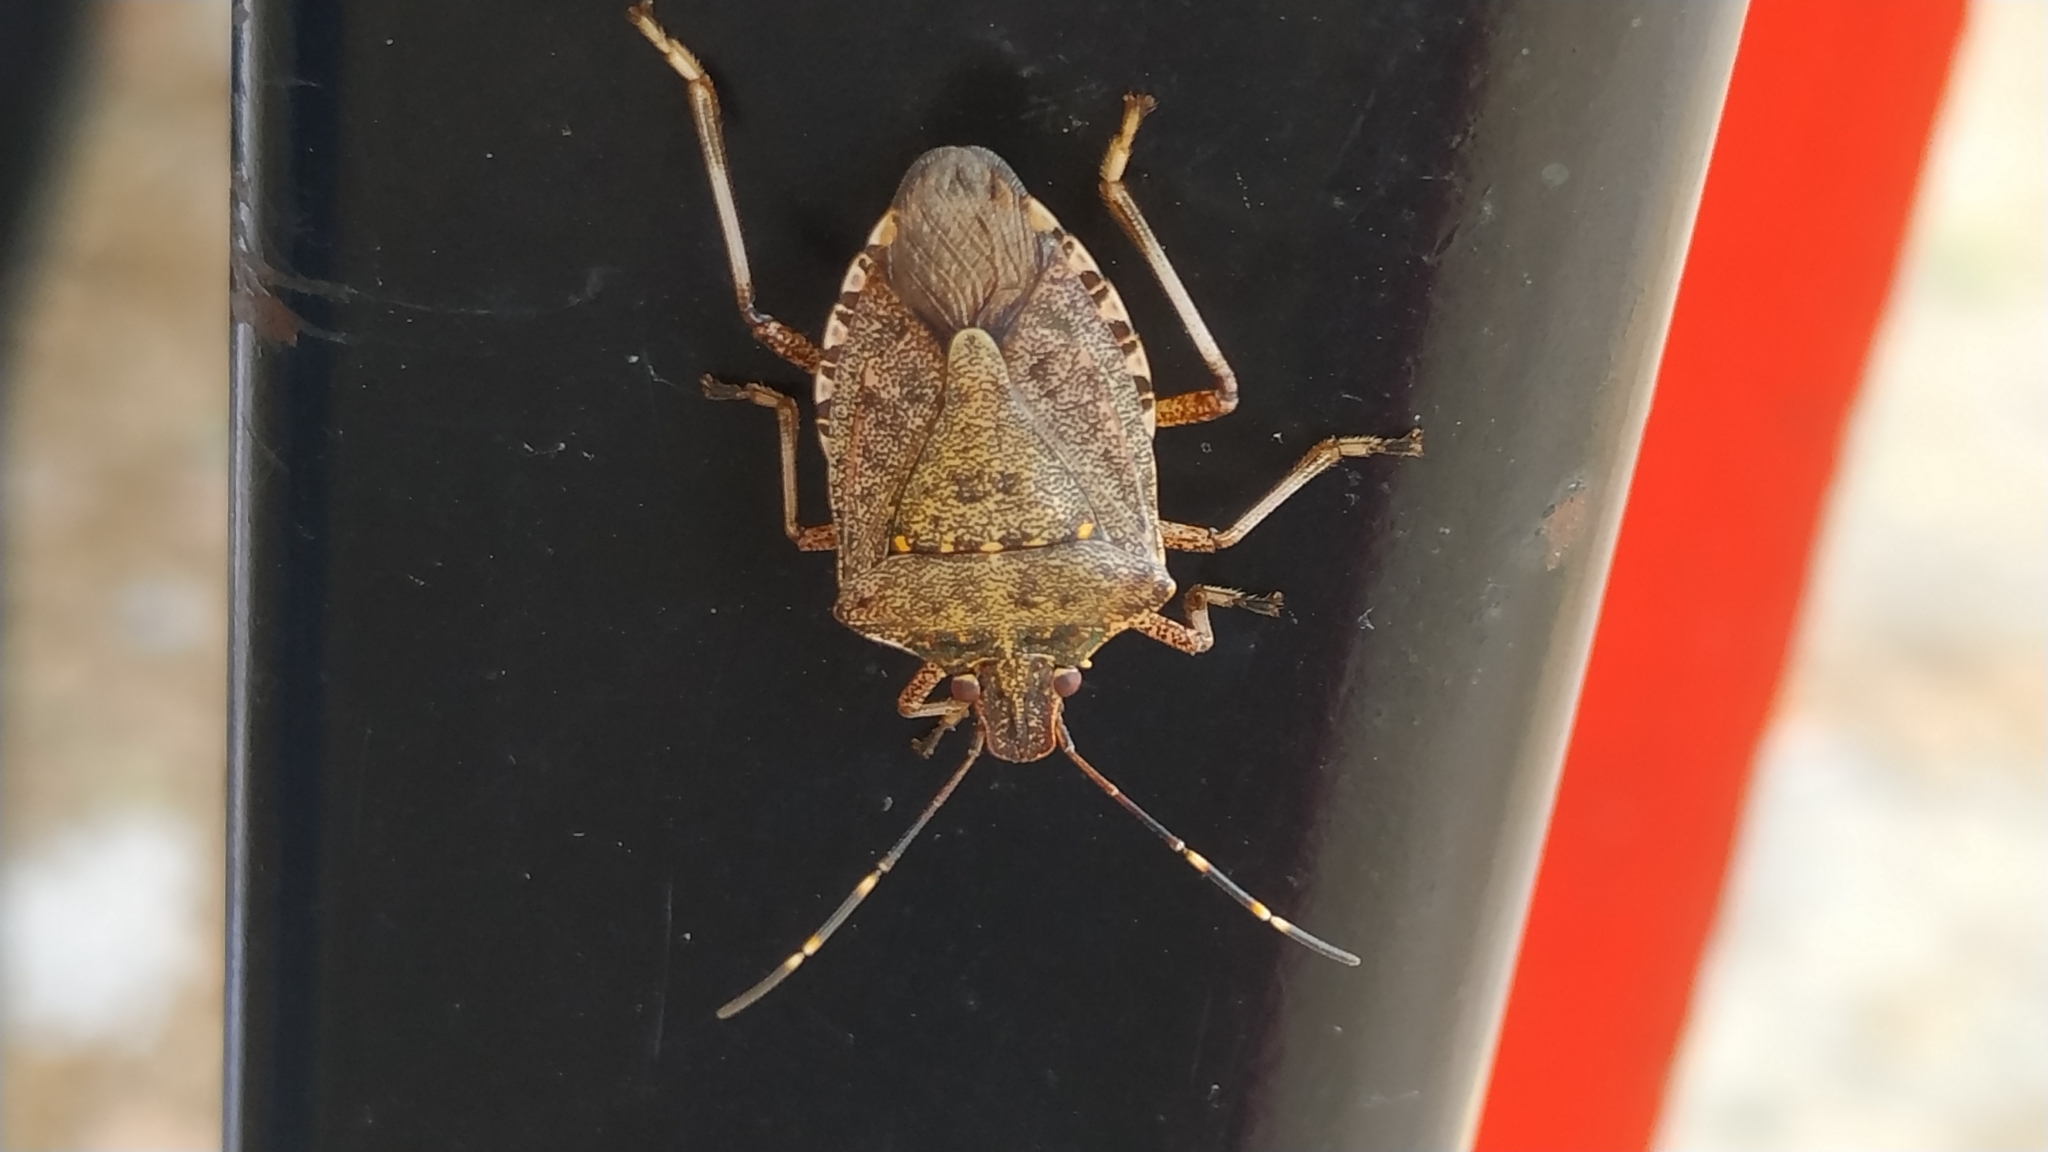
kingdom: Animalia
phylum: Arthropoda
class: Insecta
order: Hemiptera
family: Pentatomidae
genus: Halyomorpha
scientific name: Halyomorpha halys
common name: Brown marmorated stink bug
